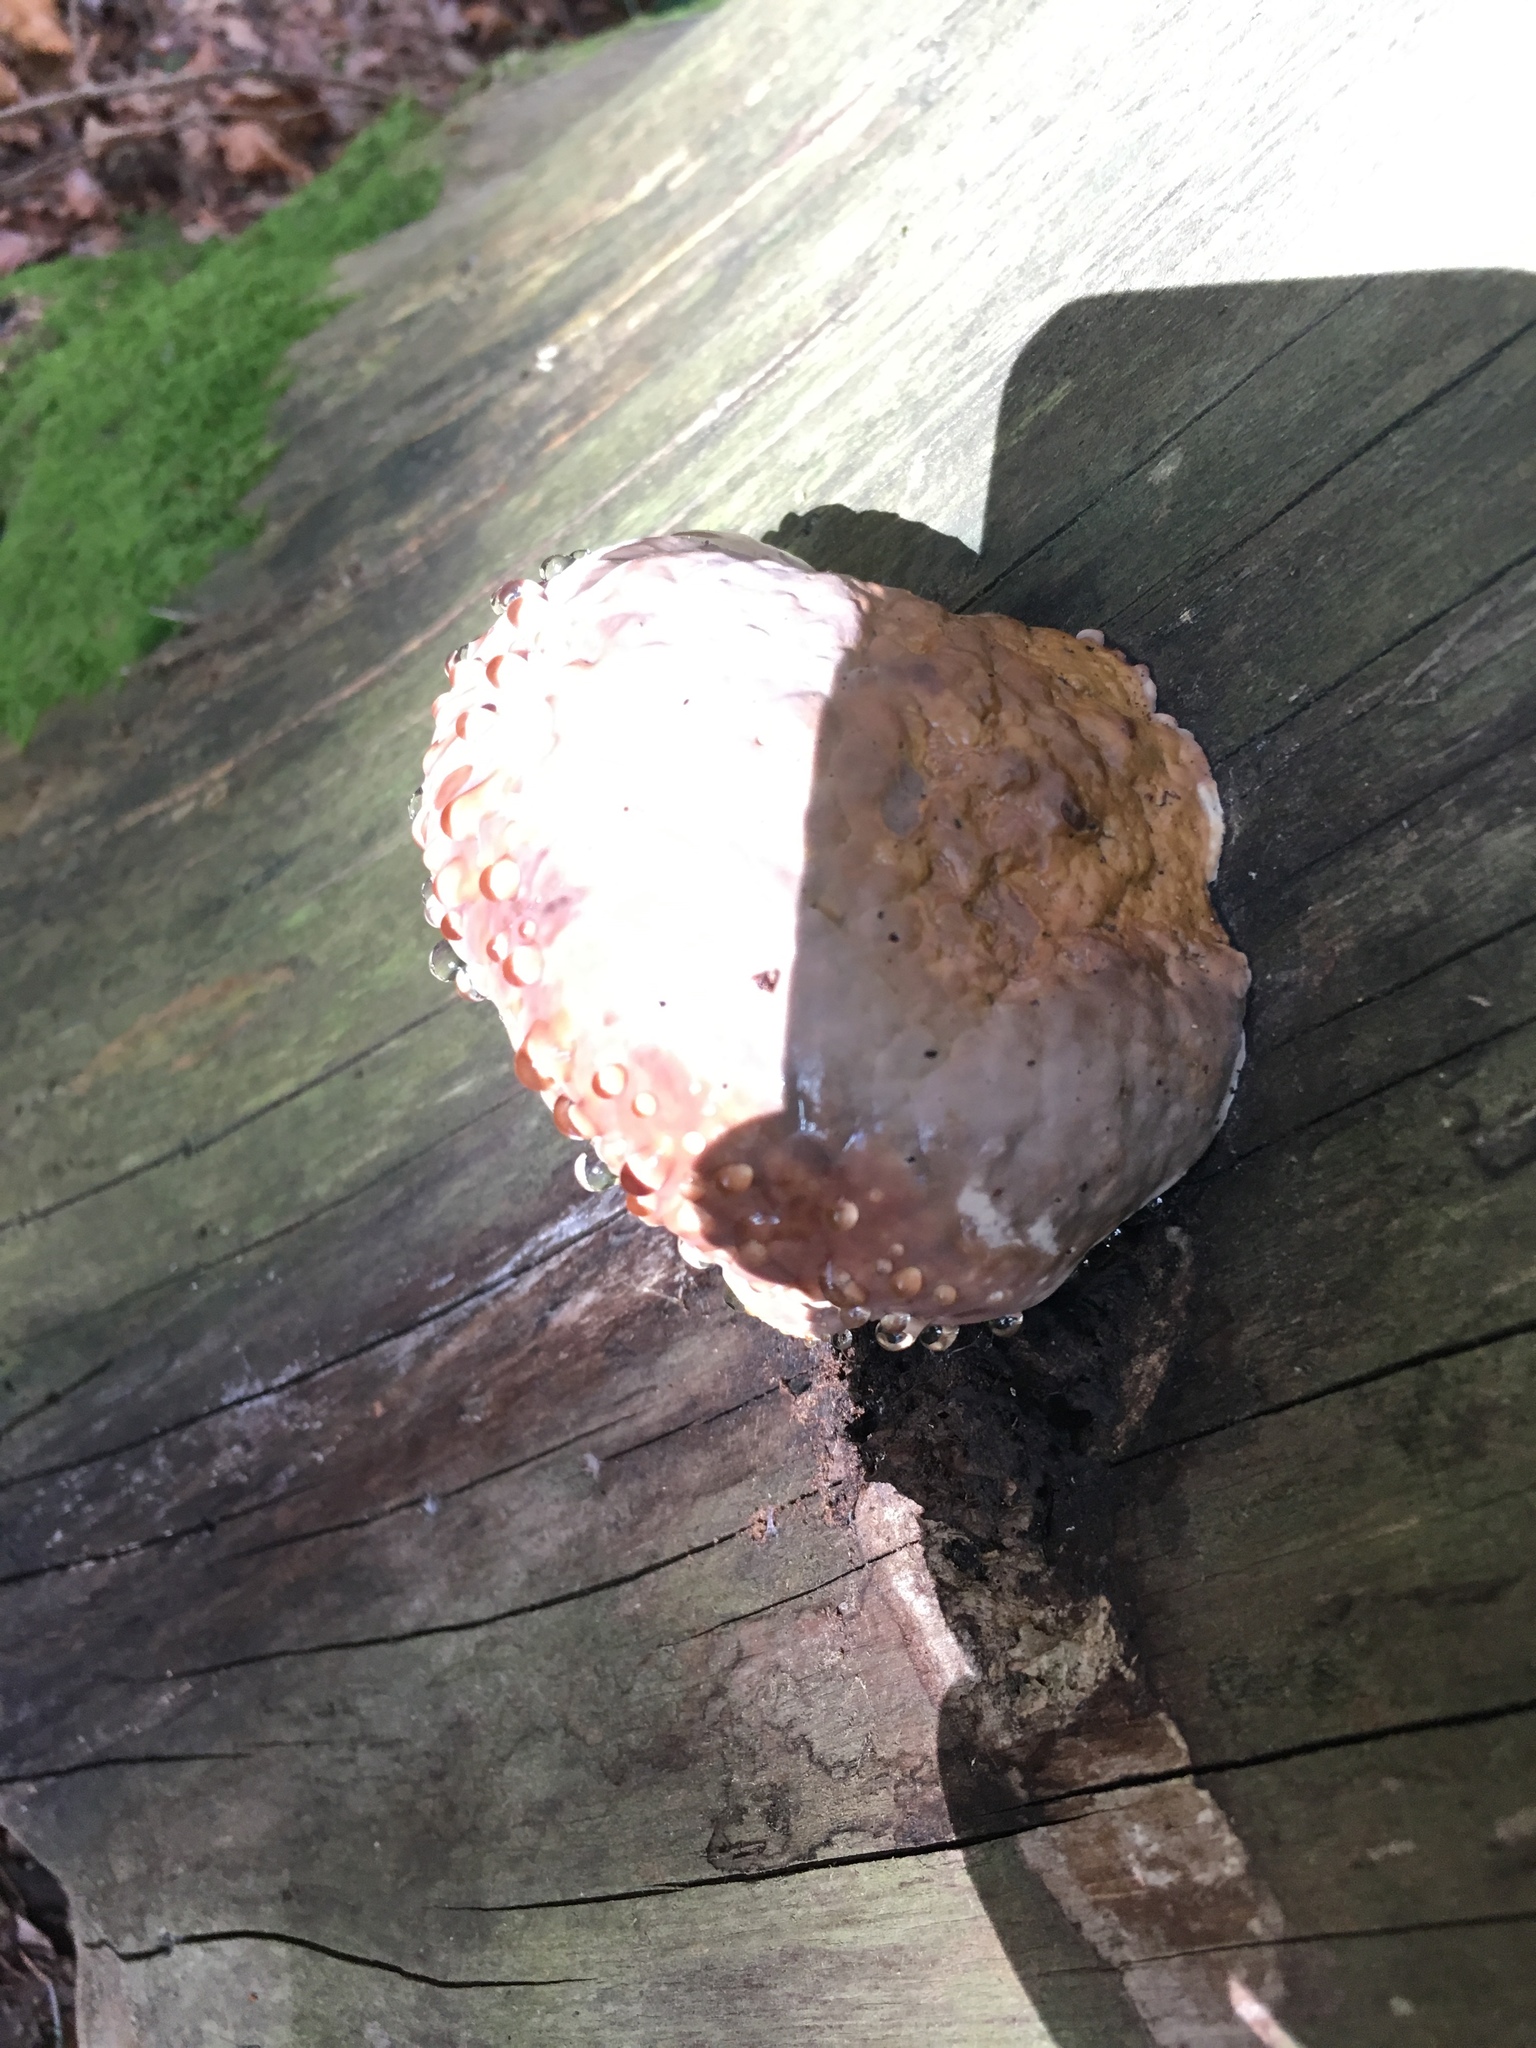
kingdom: Fungi
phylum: Basidiomycota
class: Agaricomycetes
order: Polyporales
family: Fomitopsidaceae
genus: Fomitopsis
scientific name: Fomitopsis pinicola
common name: Red-belted bracket
